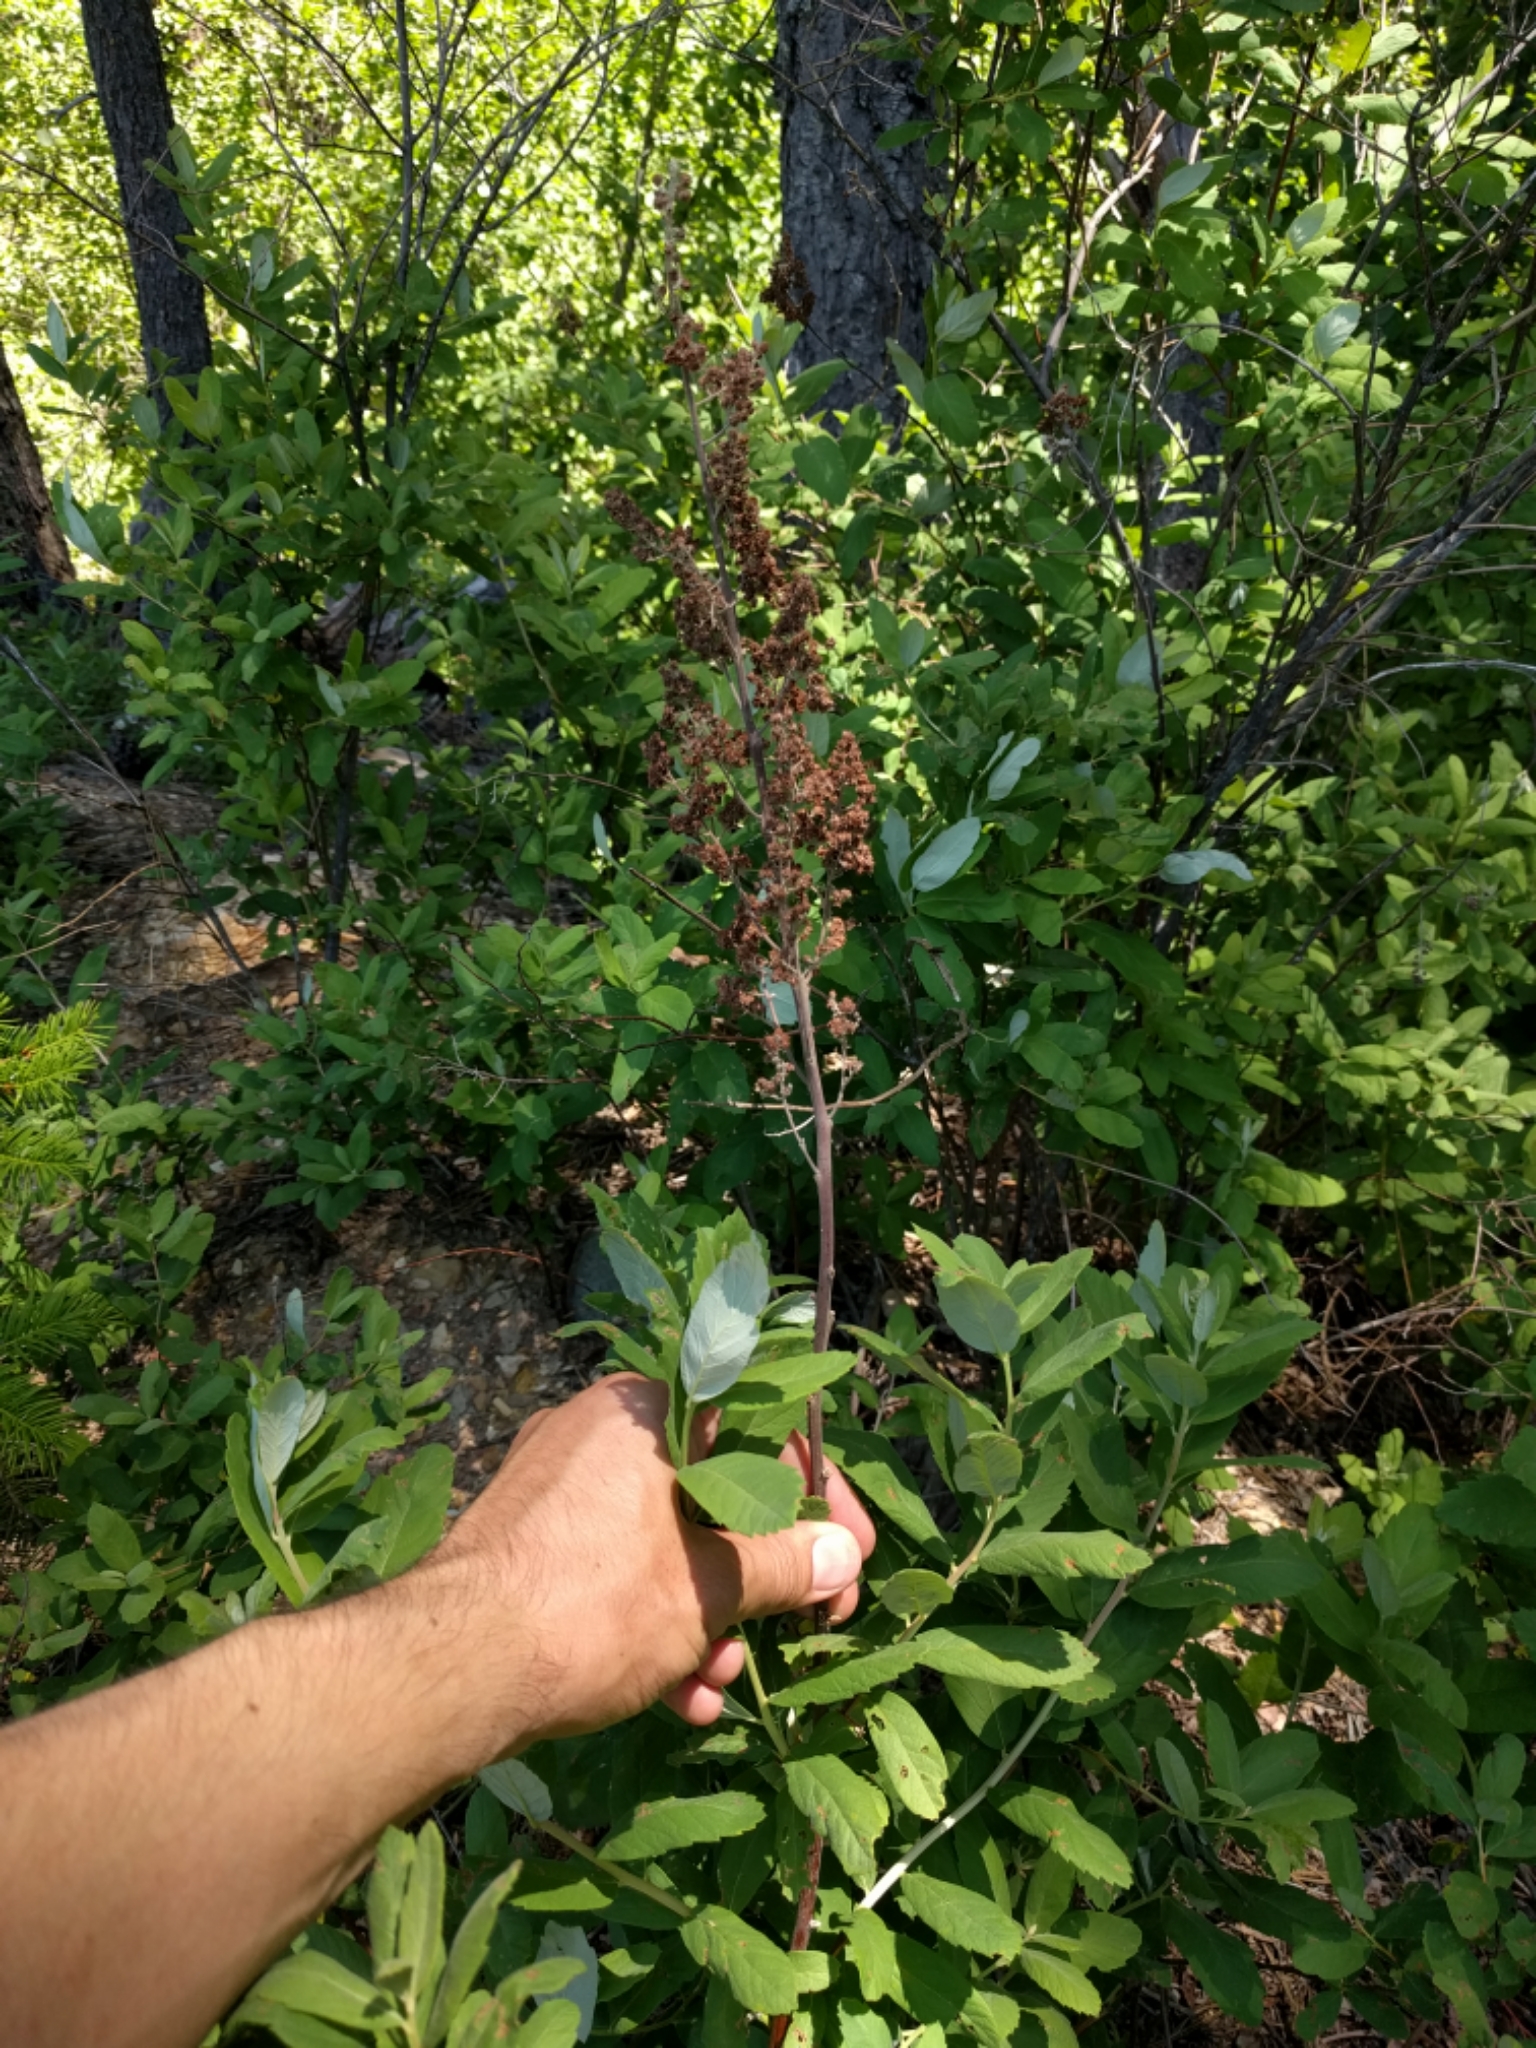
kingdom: Plantae
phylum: Tracheophyta
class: Magnoliopsida
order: Rosales
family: Rosaceae
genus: Spiraea
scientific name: Spiraea douglasii
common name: Steeplebush
